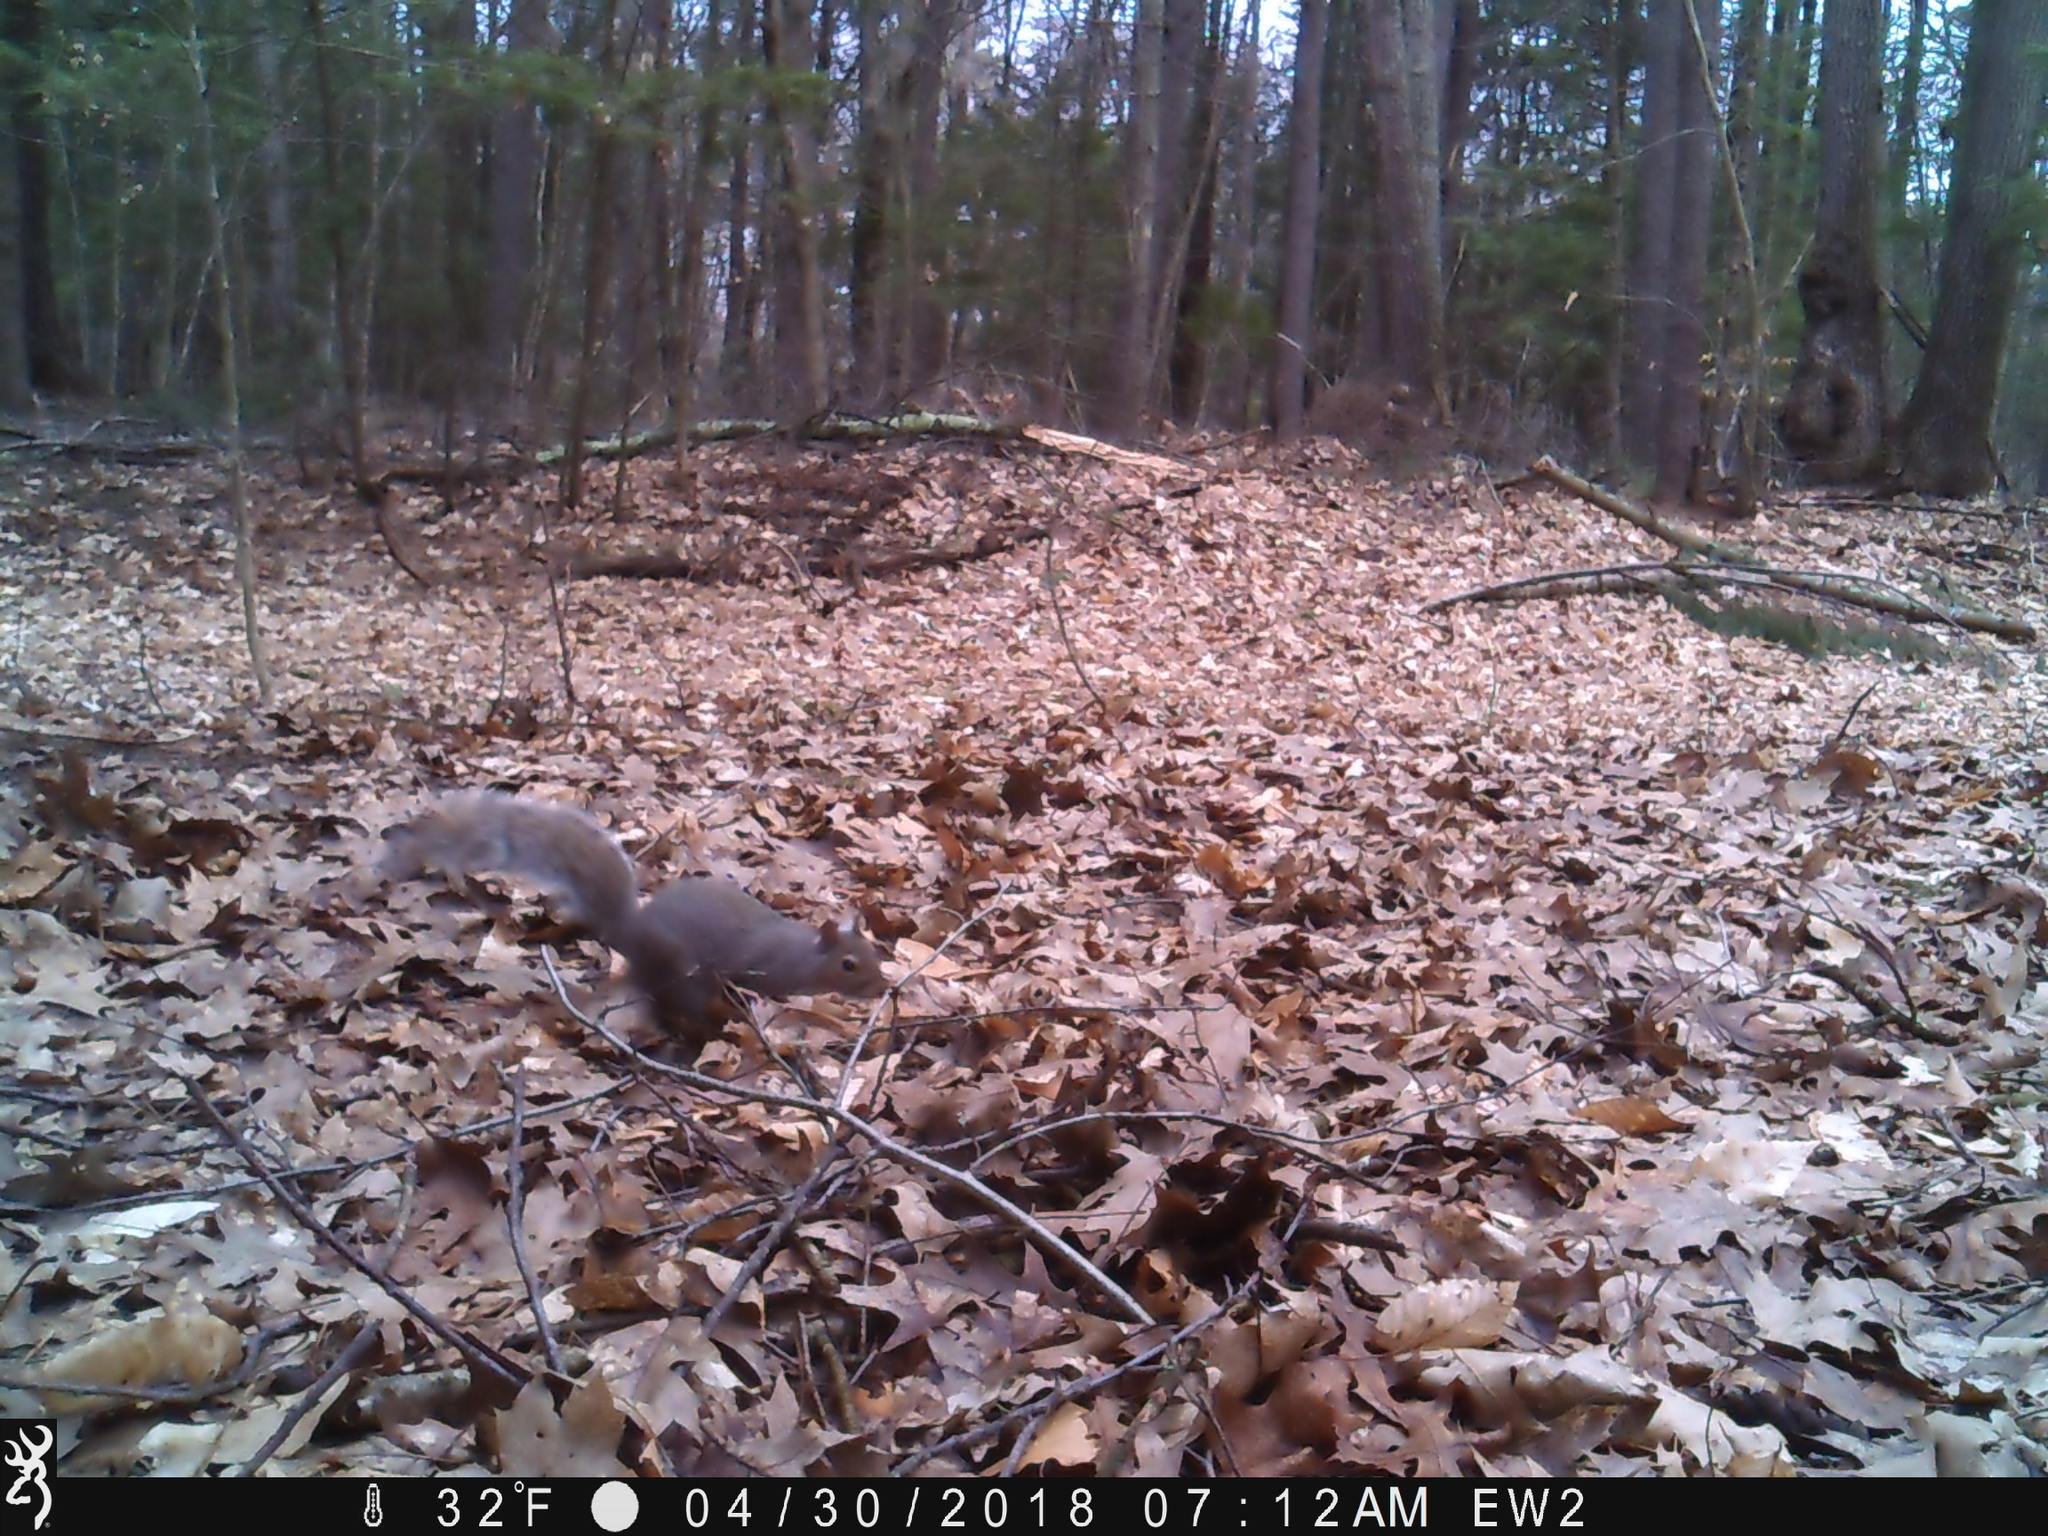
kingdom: Animalia
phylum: Chordata
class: Mammalia
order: Rodentia
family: Sciuridae
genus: Sciurus
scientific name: Sciurus carolinensis
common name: Eastern gray squirrel
